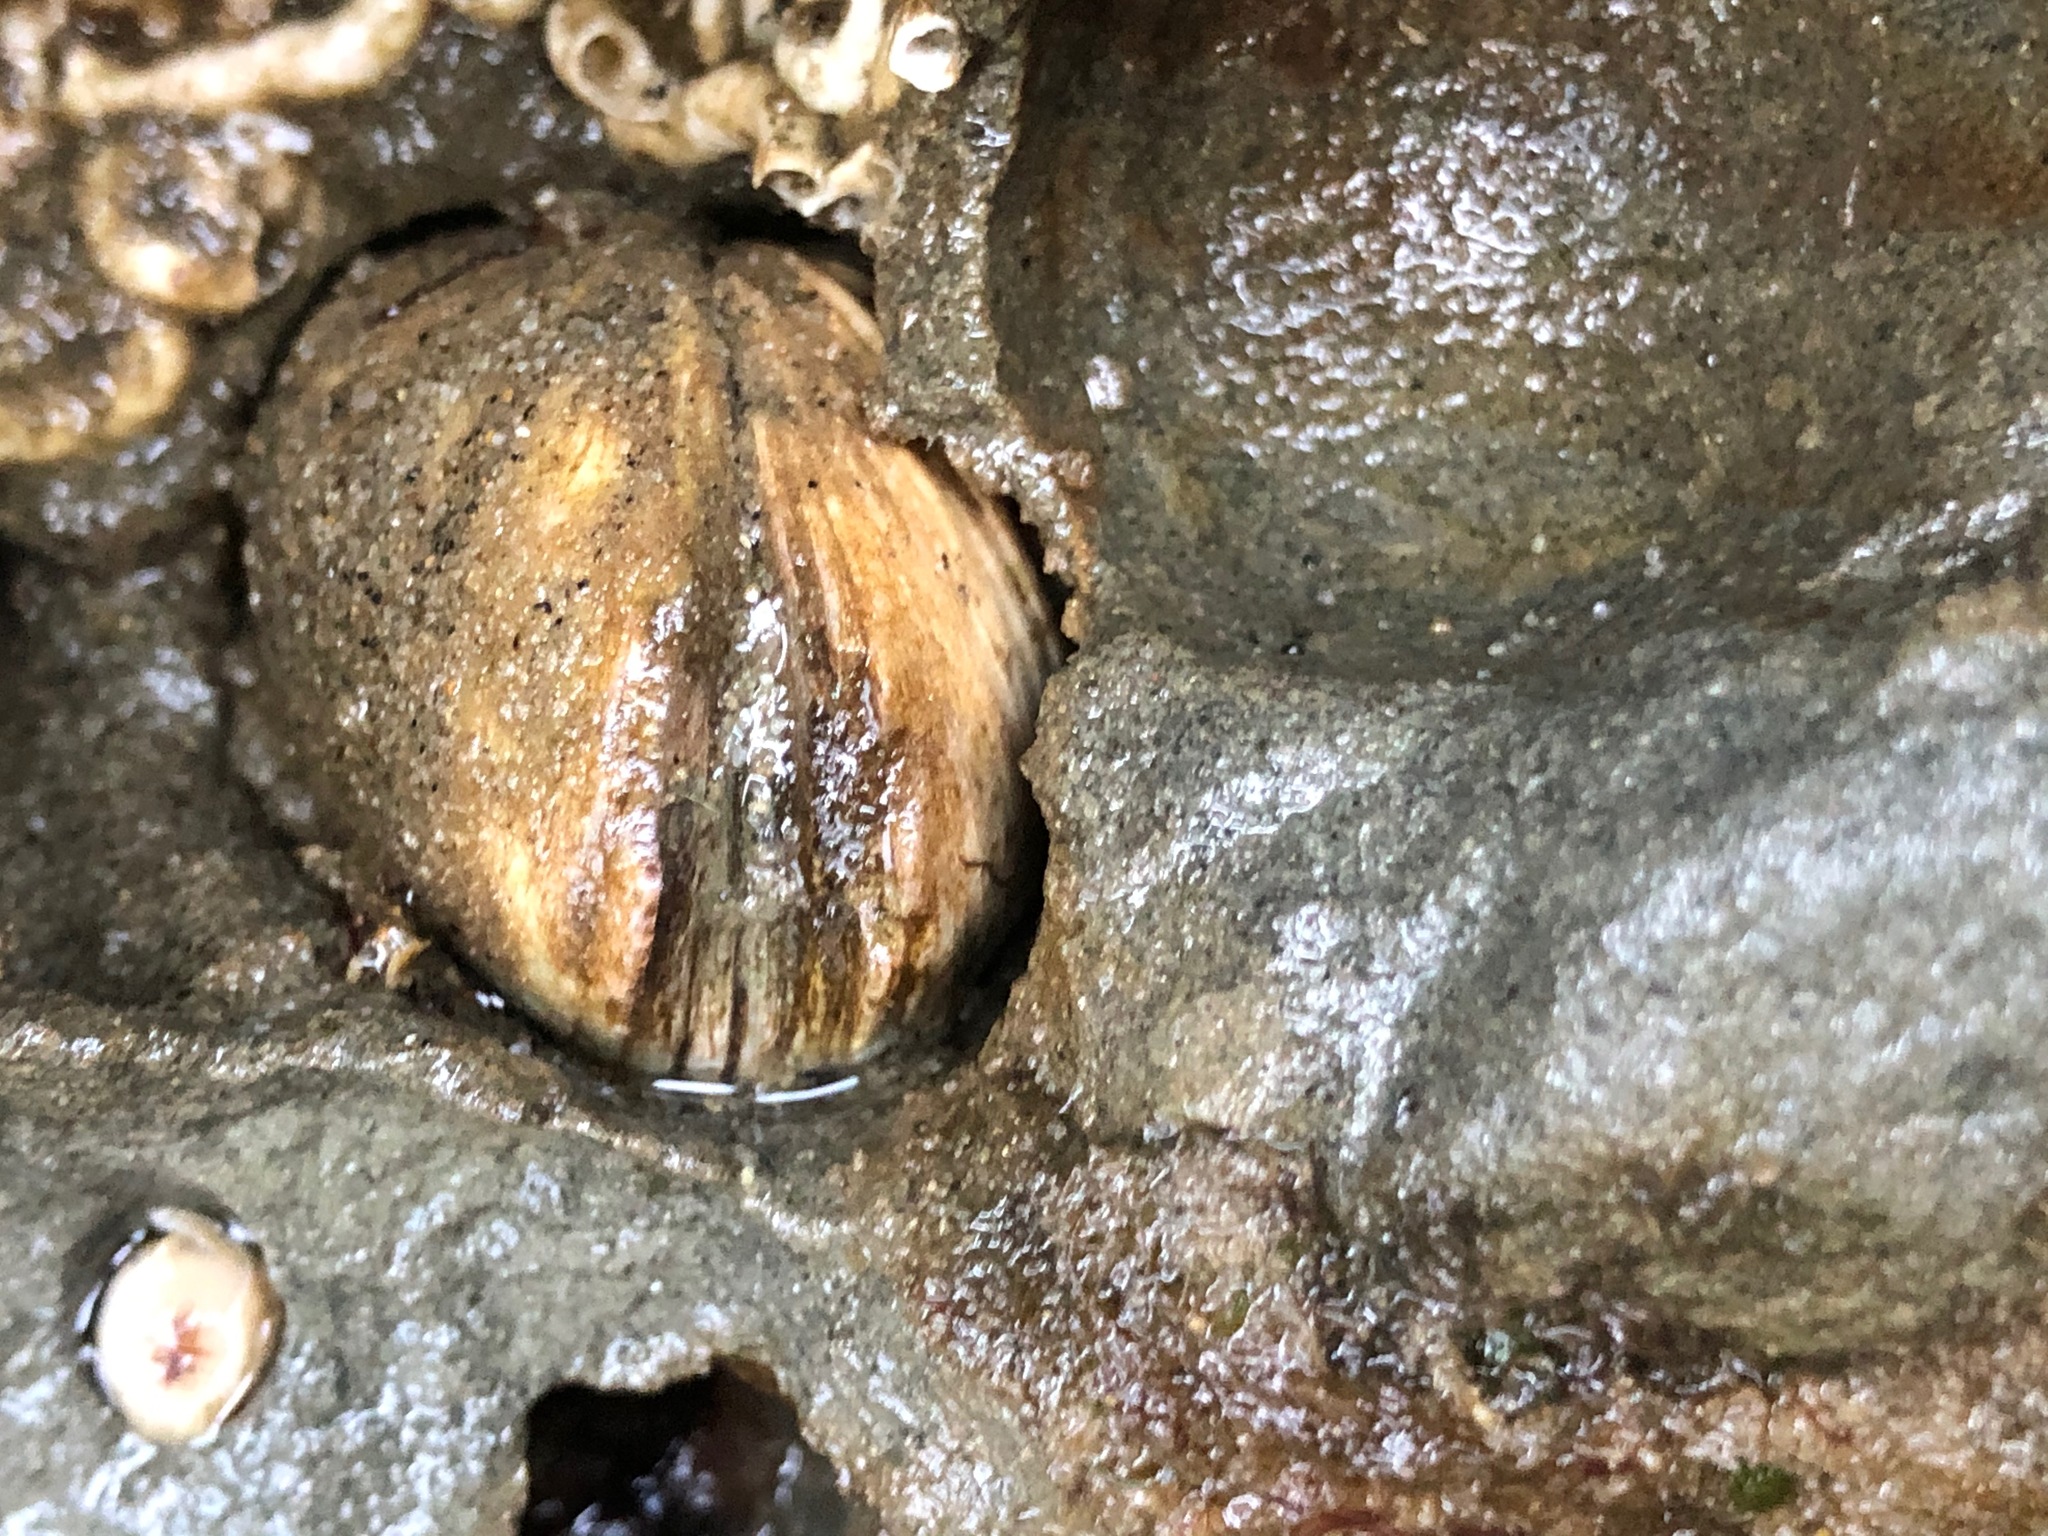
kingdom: Animalia
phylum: Mollusca
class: Bivalvia
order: Venerida
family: Veneridae
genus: Petricola
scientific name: Petricola carditoides
